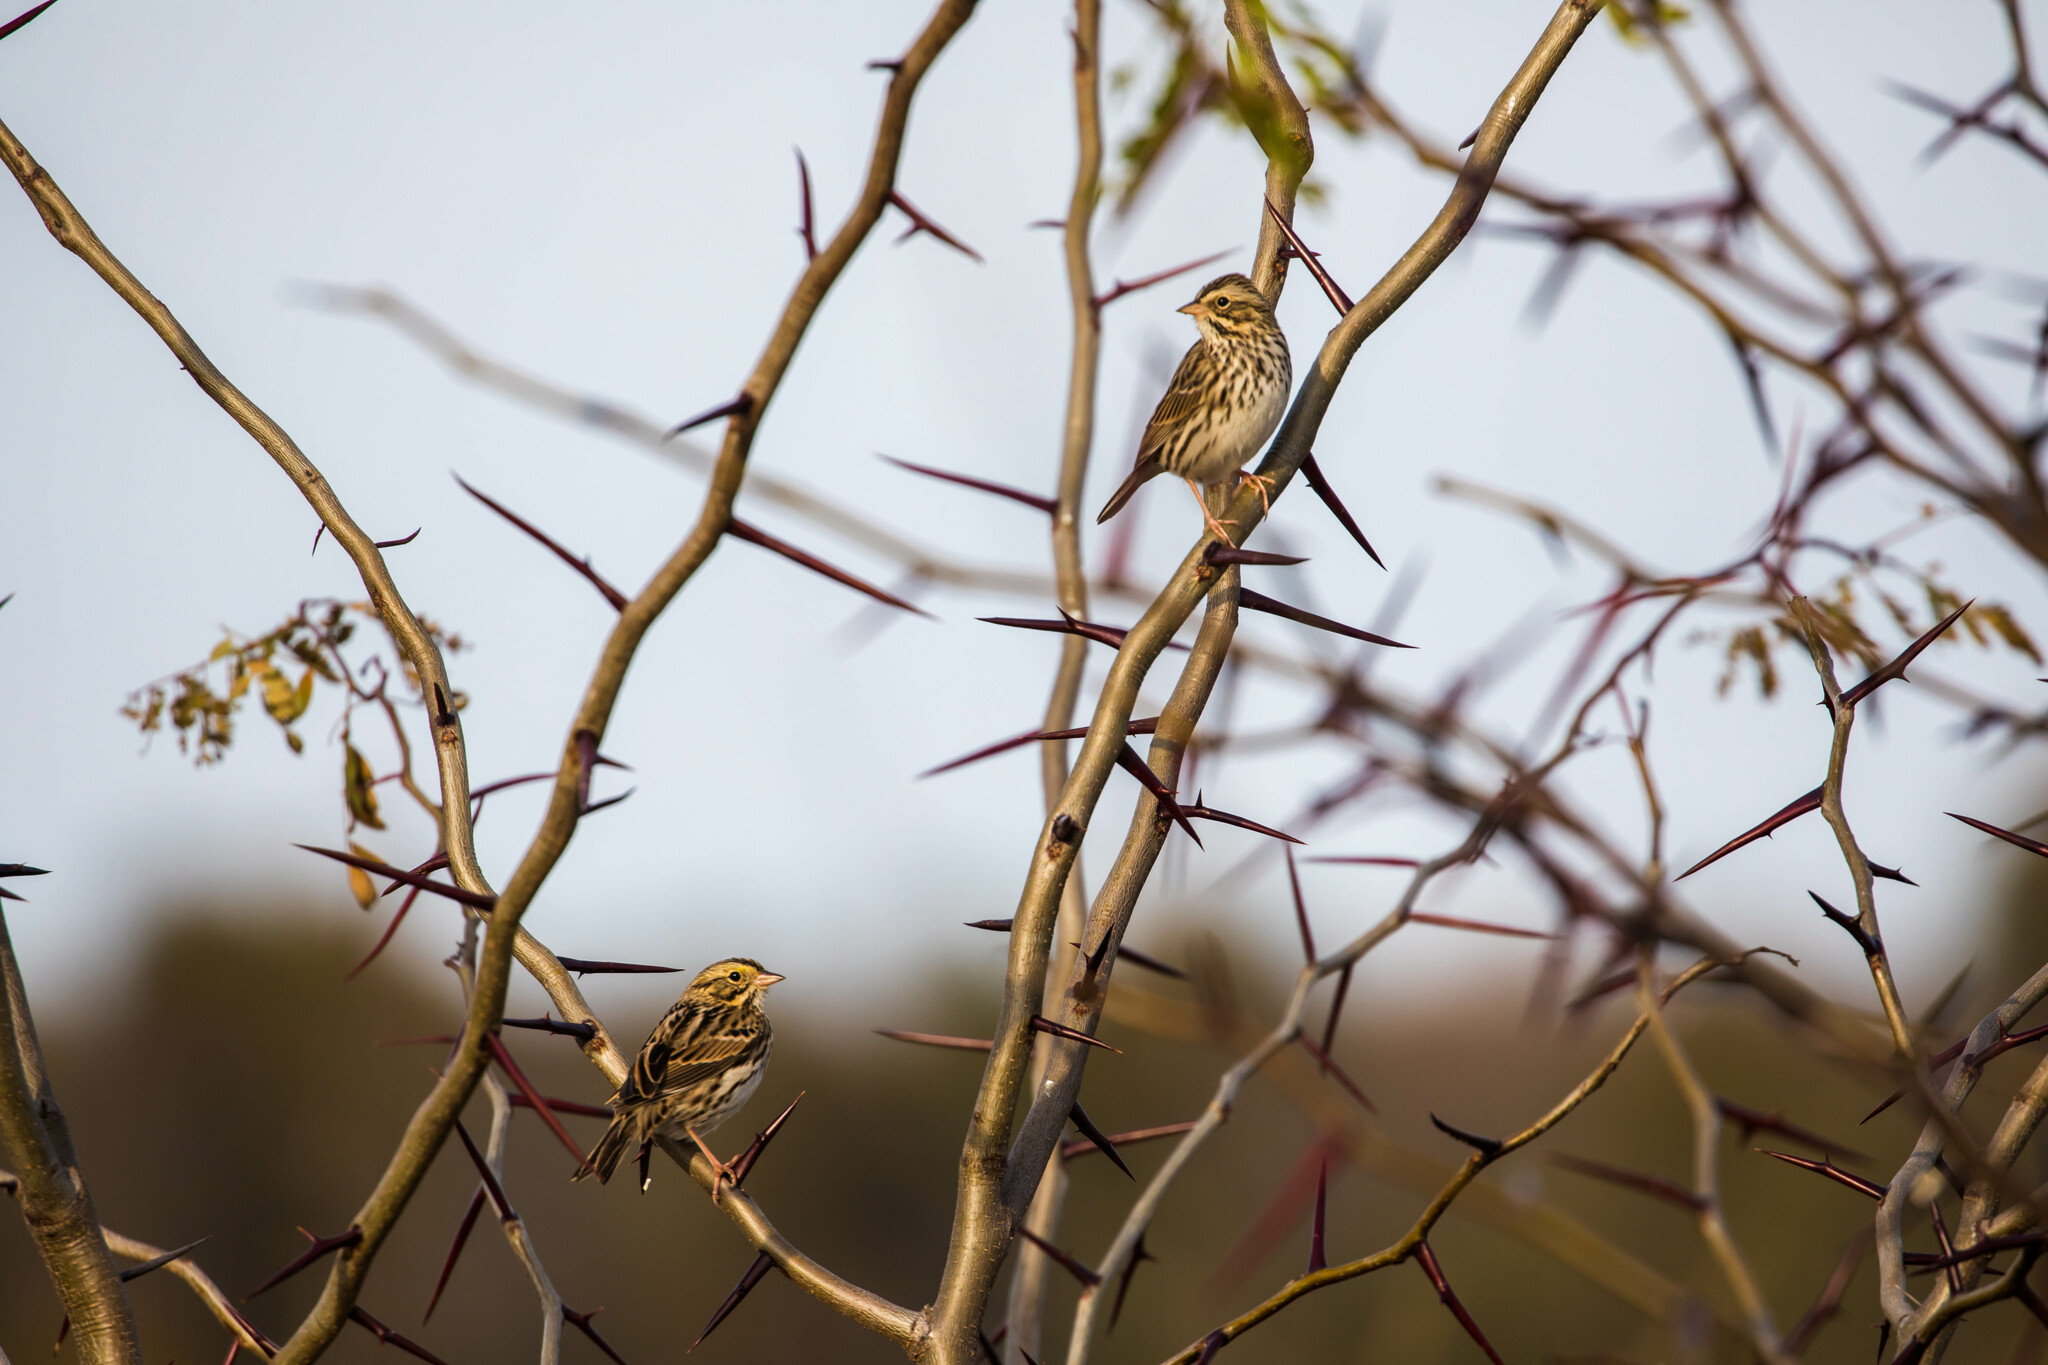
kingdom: Animalia
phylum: Chordata
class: Aves
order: Passeriformes
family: Passerellidae
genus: Passerculus
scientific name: Passerculus sandwichensis
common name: Savannah sparrow
